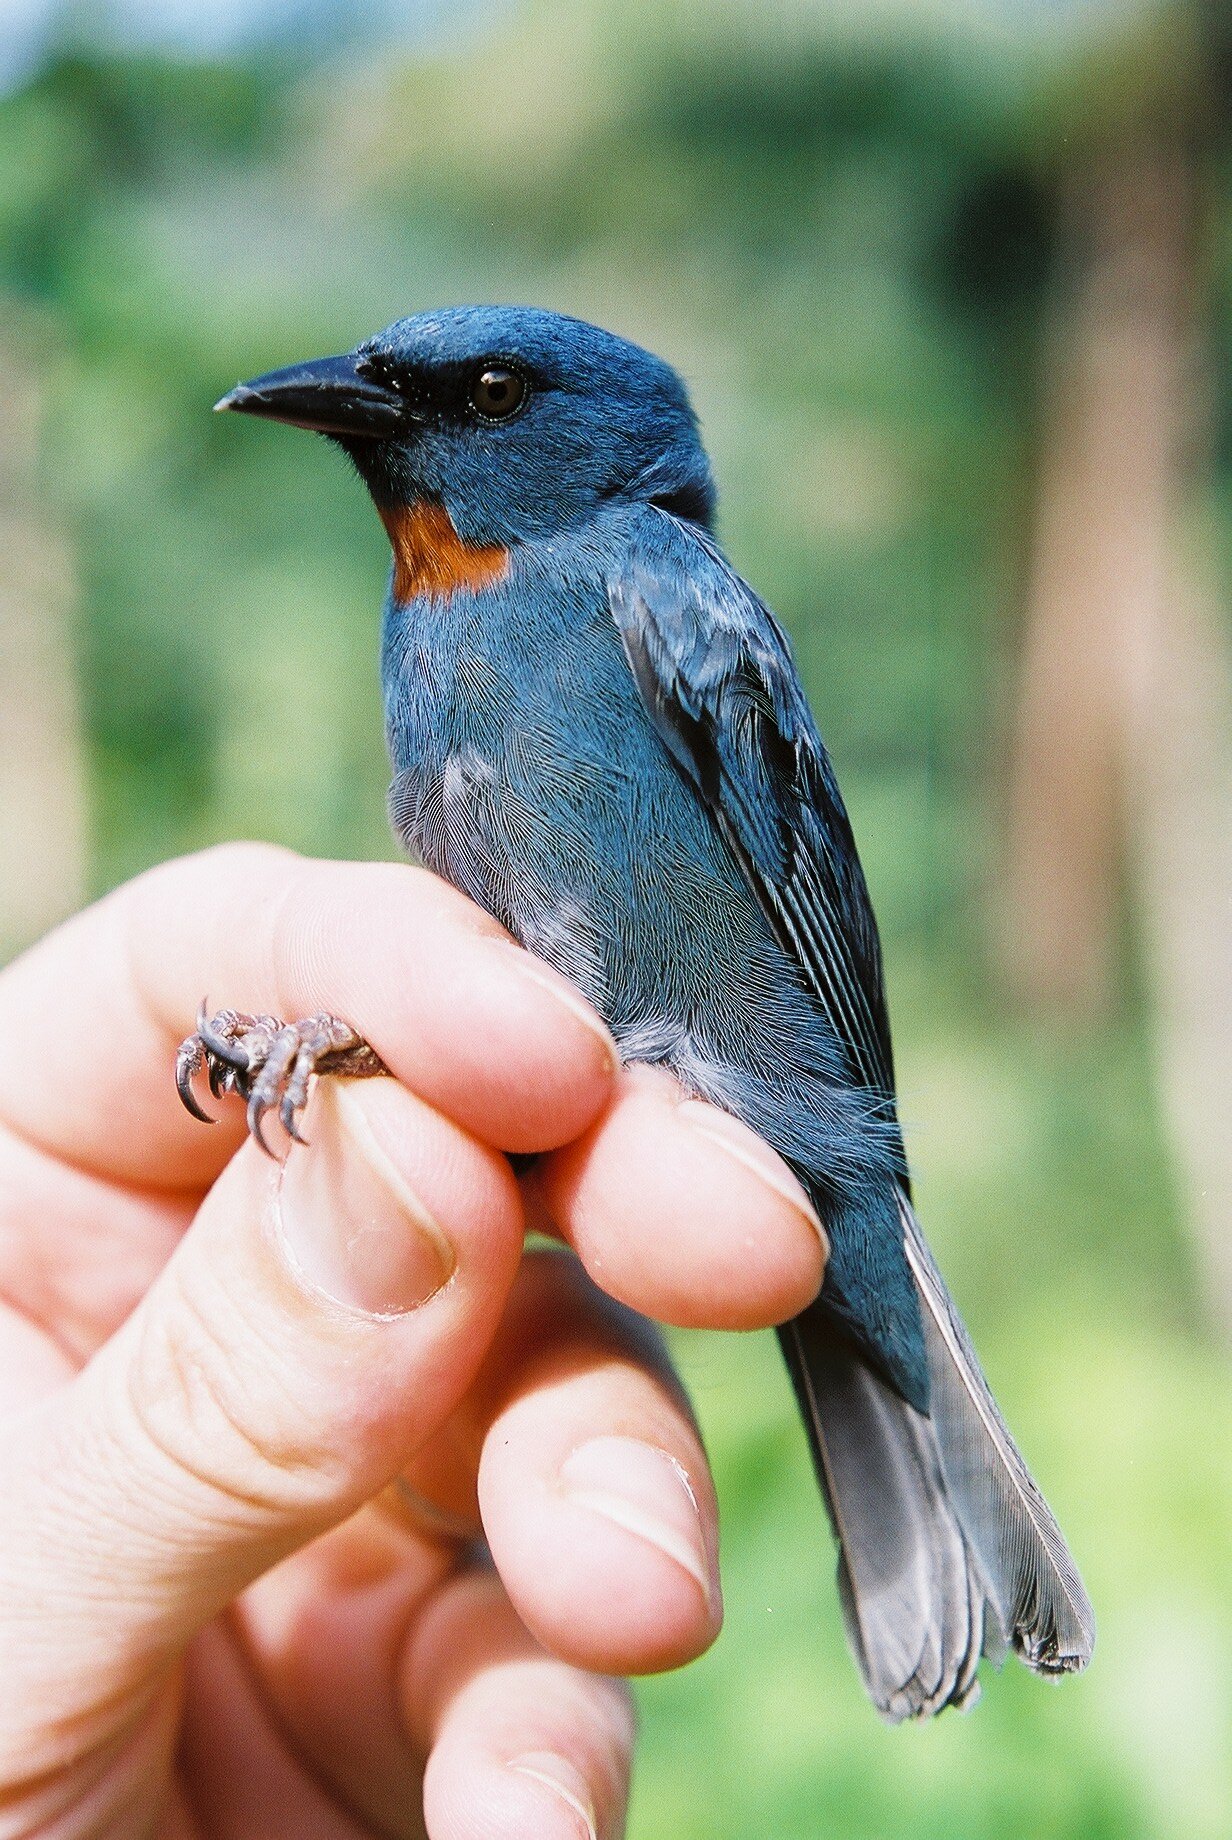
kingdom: Animalia
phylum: Chordata
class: Aves
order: Passeriformes
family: Thraupidae
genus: Euneornis
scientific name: Euneornis campestris
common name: Orangequit
